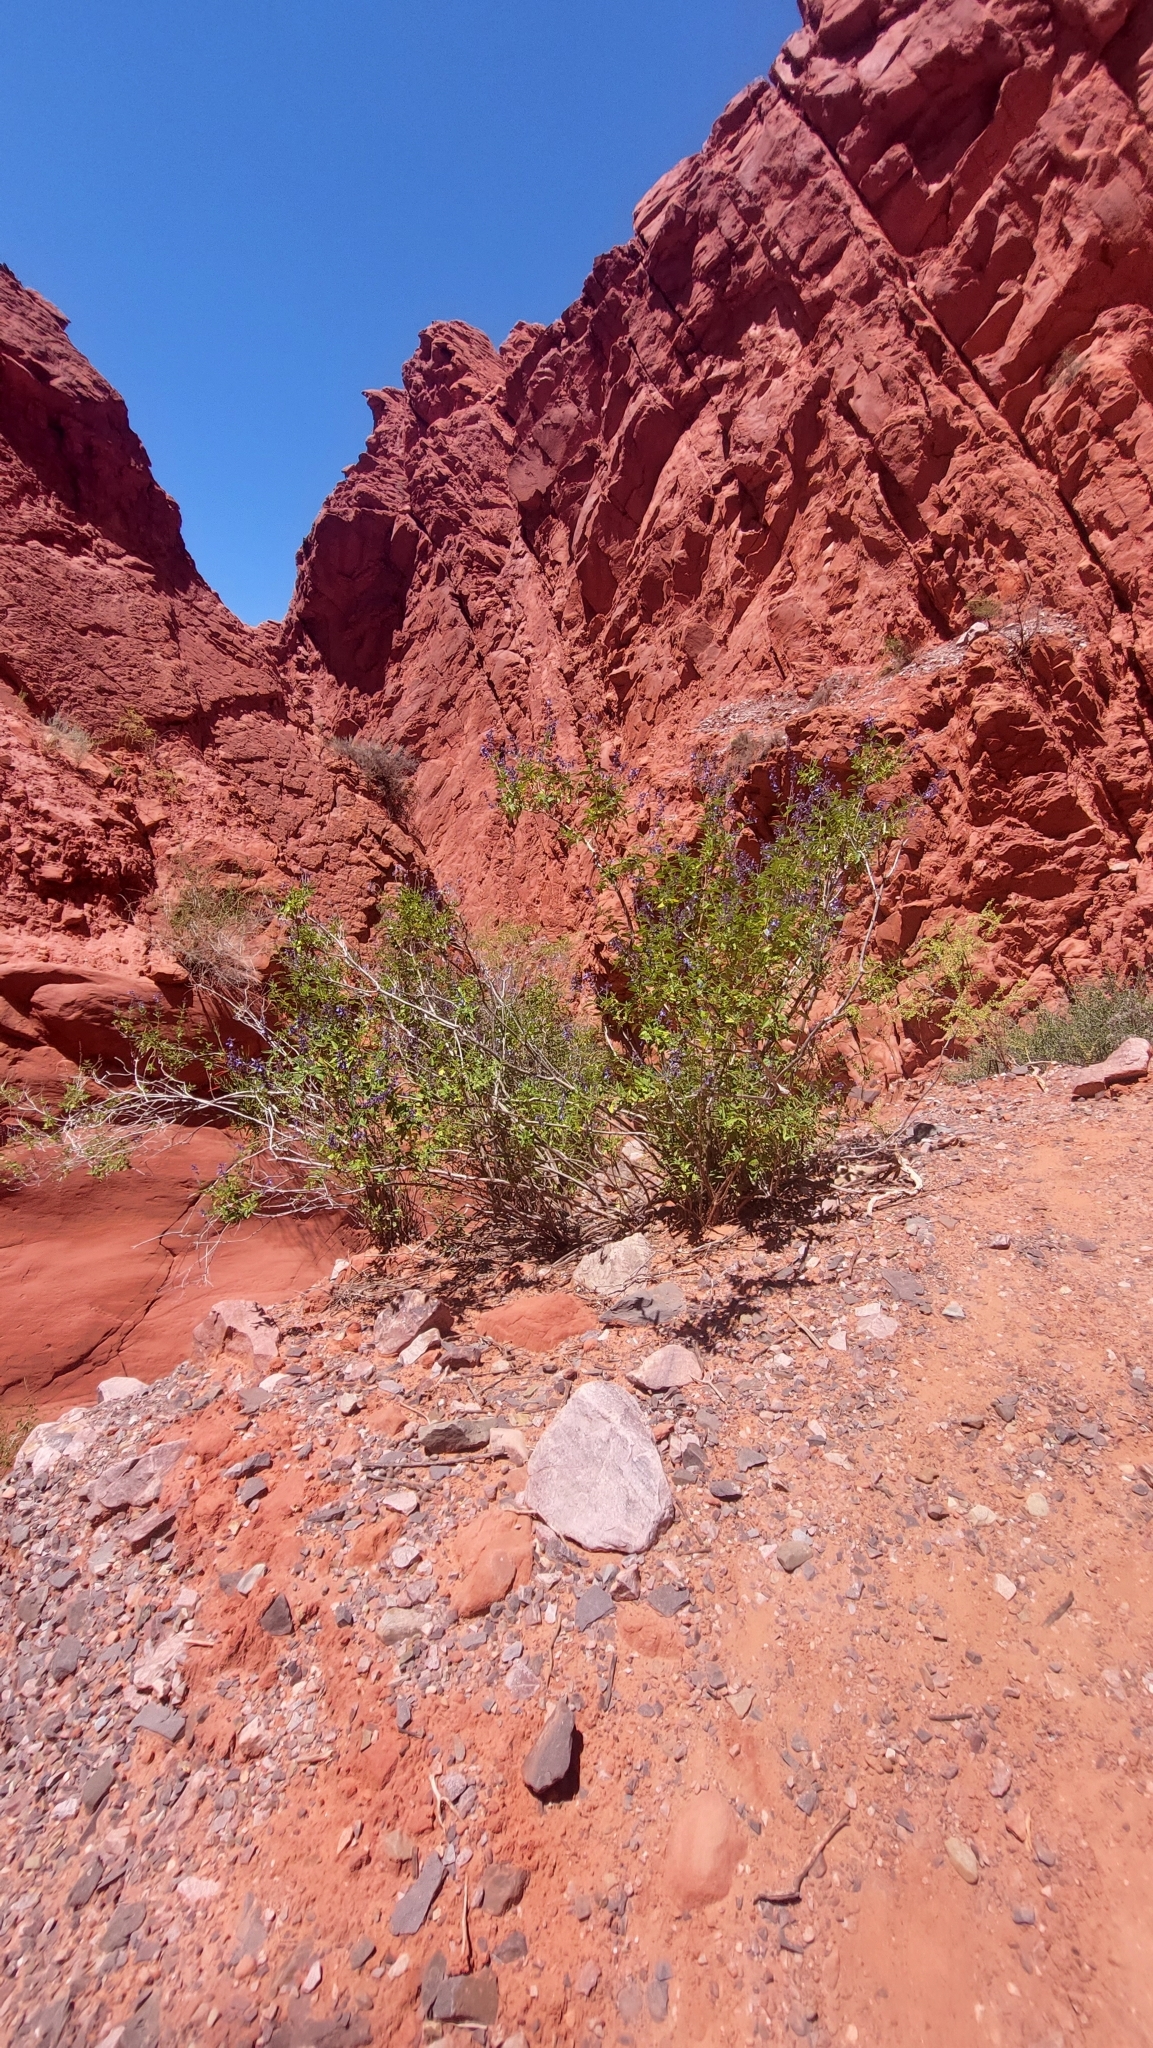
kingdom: Plantae
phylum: Tracheophyta
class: Magnoliopsida
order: Lamiales
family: Lamiaceae
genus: Salvia
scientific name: Salvia cuspidata
